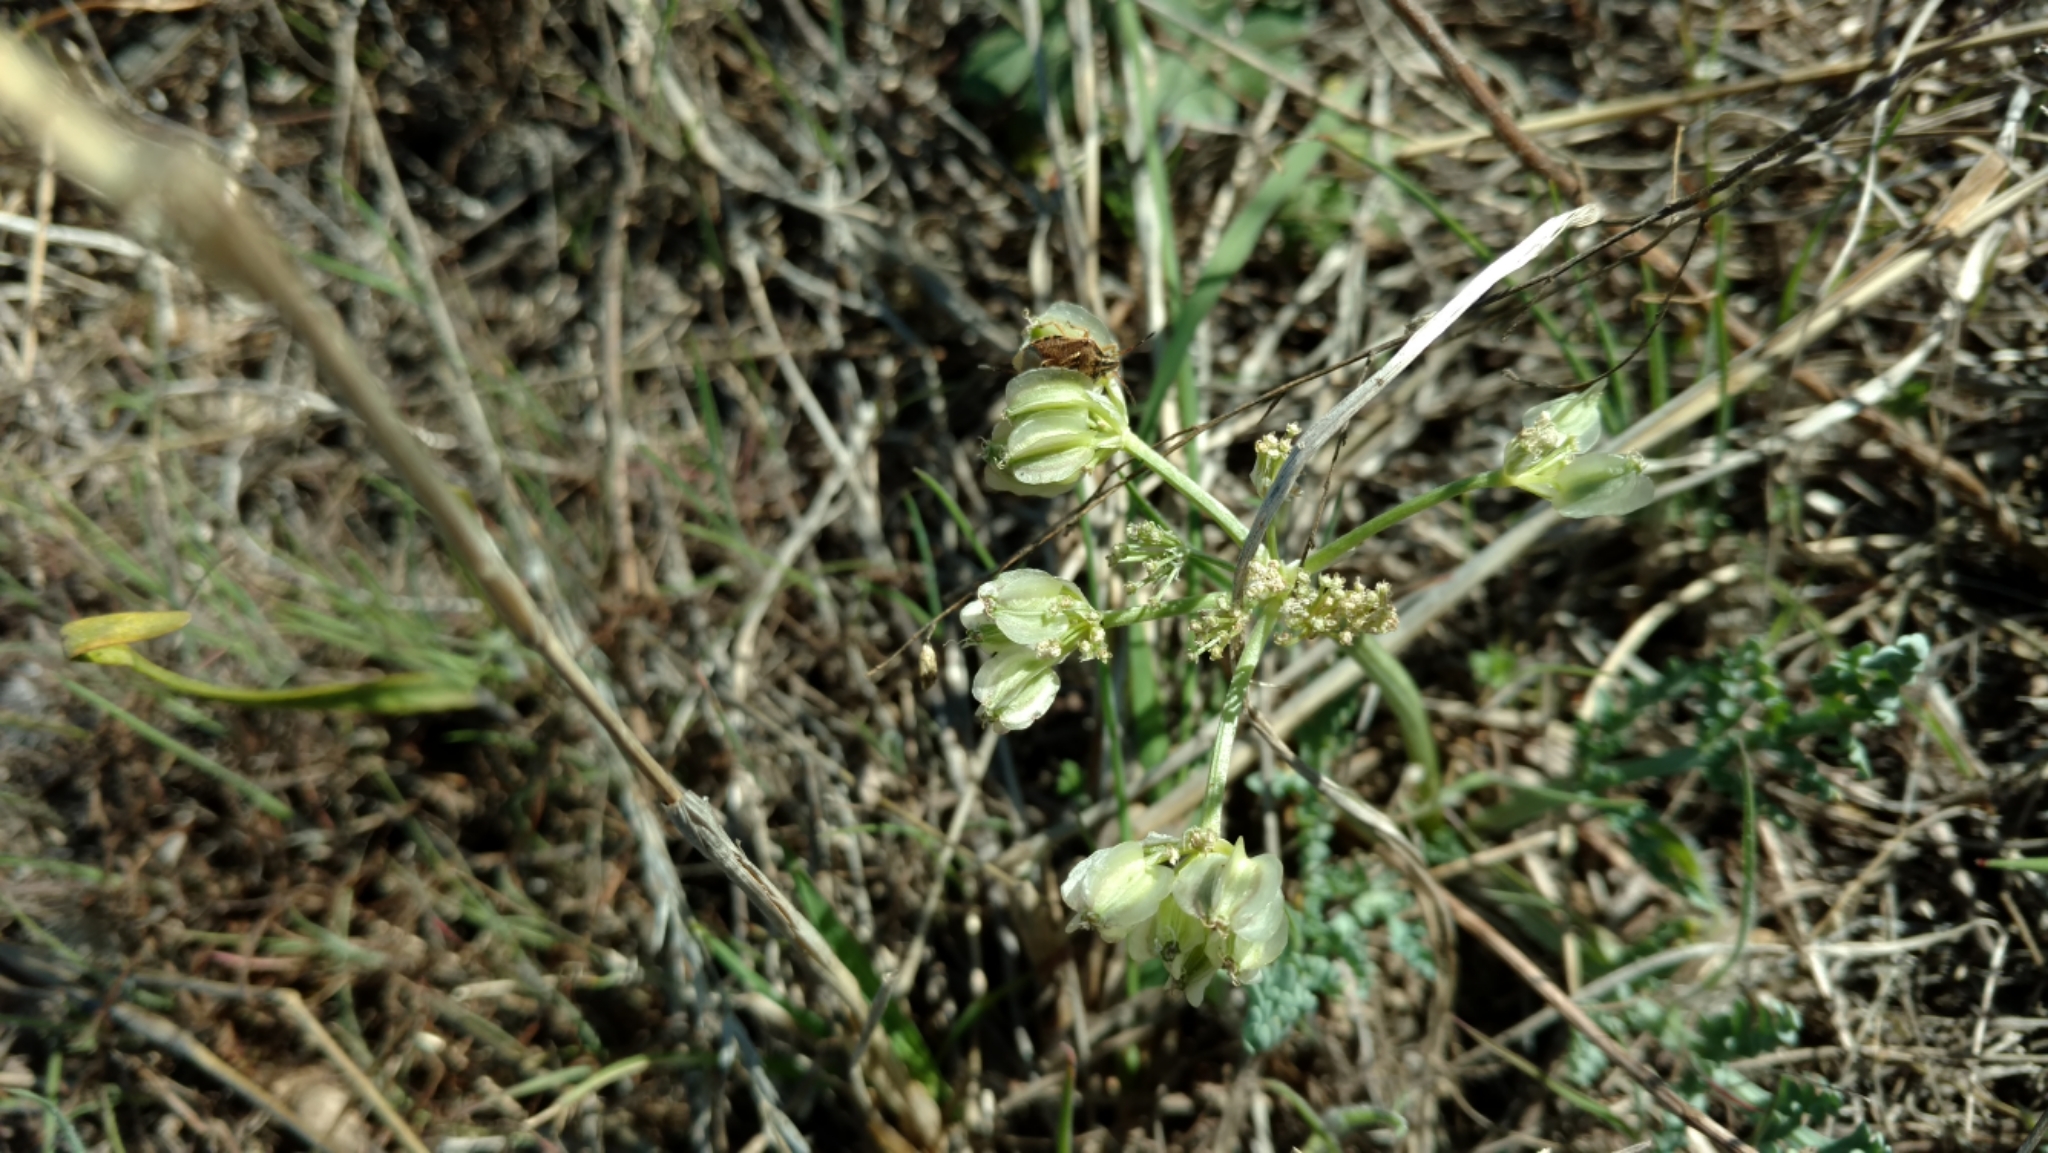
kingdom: Plantae
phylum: Tracheophyta
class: Magnoliopsida
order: Apiales
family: Apiaceae
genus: Vesper
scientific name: Vesper macrorhizus
